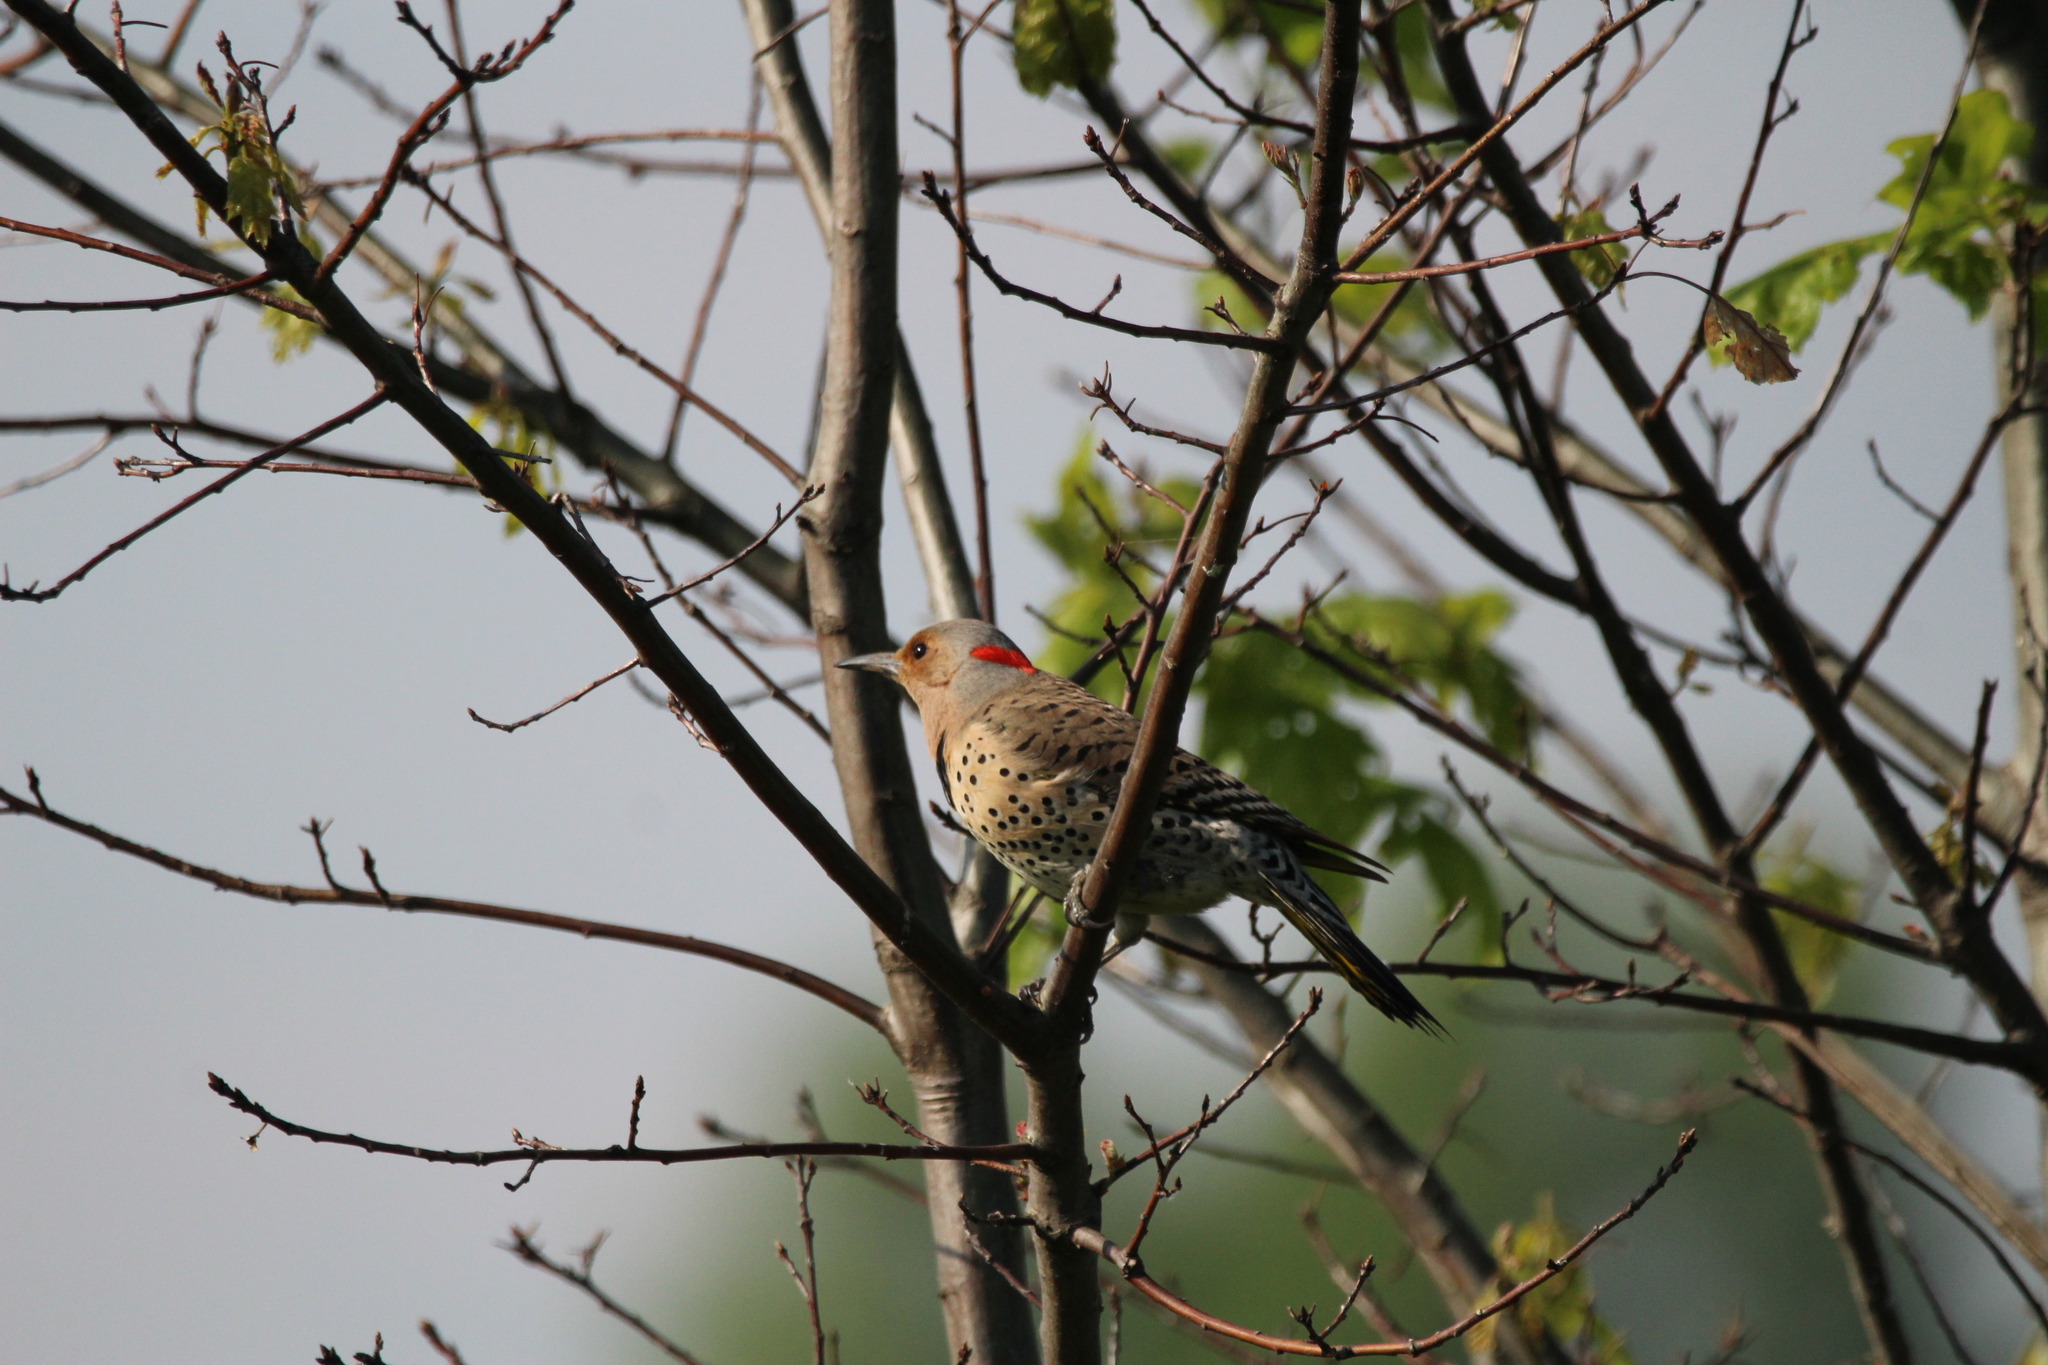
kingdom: Animalia
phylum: Chordata
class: Aves
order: Piciformes
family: Picidae
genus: Colaptes
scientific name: Colaptes auratus
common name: Northern flicker
